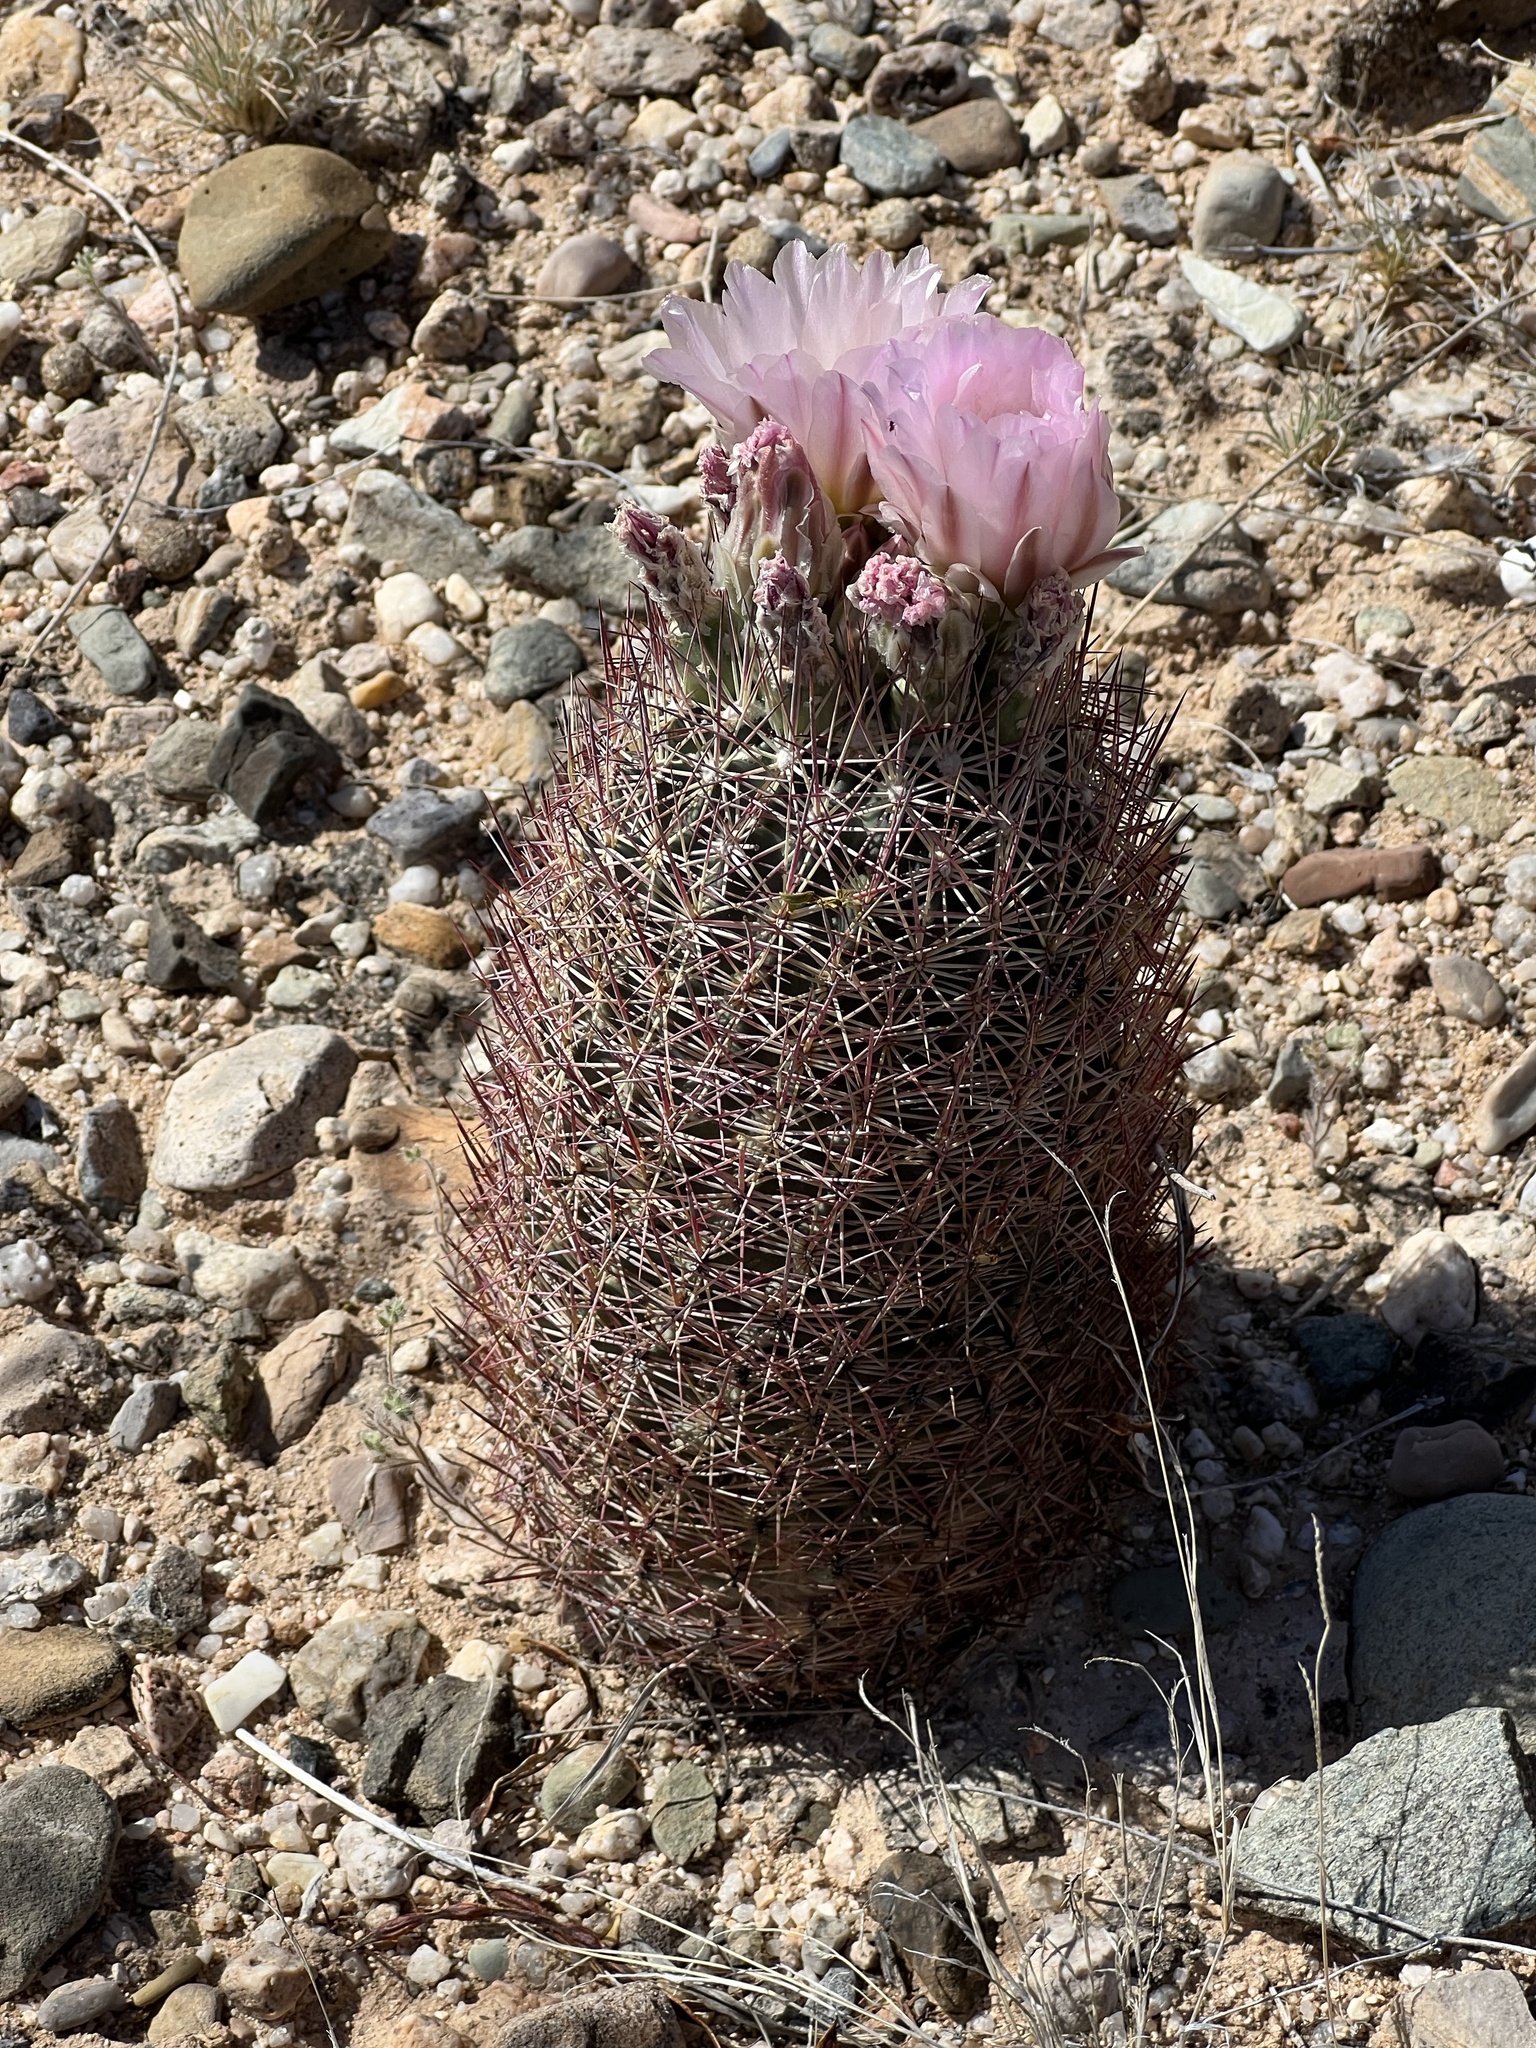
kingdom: Plantae
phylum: Tracheophyta
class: Magnoliopsida
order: Caryophyllales
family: Cactaceae
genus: Sclerocactus
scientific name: Sclerocactus johnsonii
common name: Eight-spine fishhook cactus
